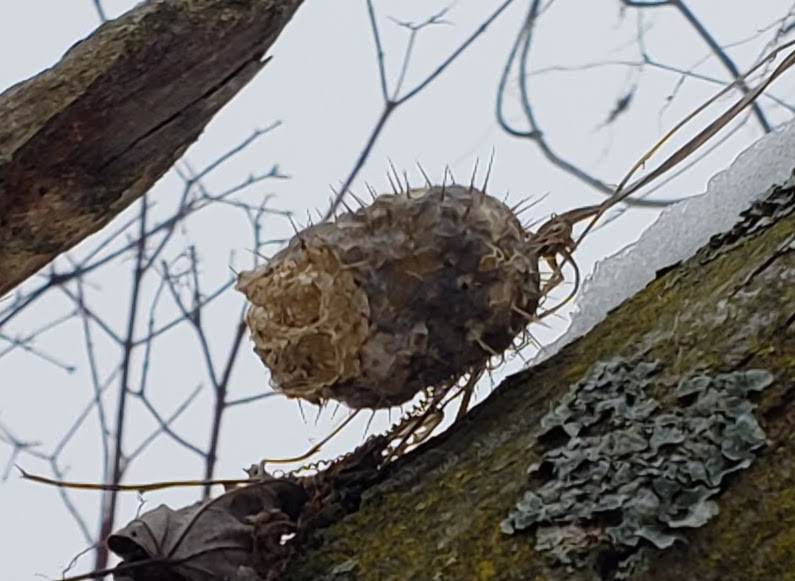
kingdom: Plantae
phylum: Tracheophyta
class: Magnoliopsida
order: Cucurbitales
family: Cucurbitaceae
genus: Echinocystis
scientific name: Echinocystis lobata
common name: Wild cucumber
